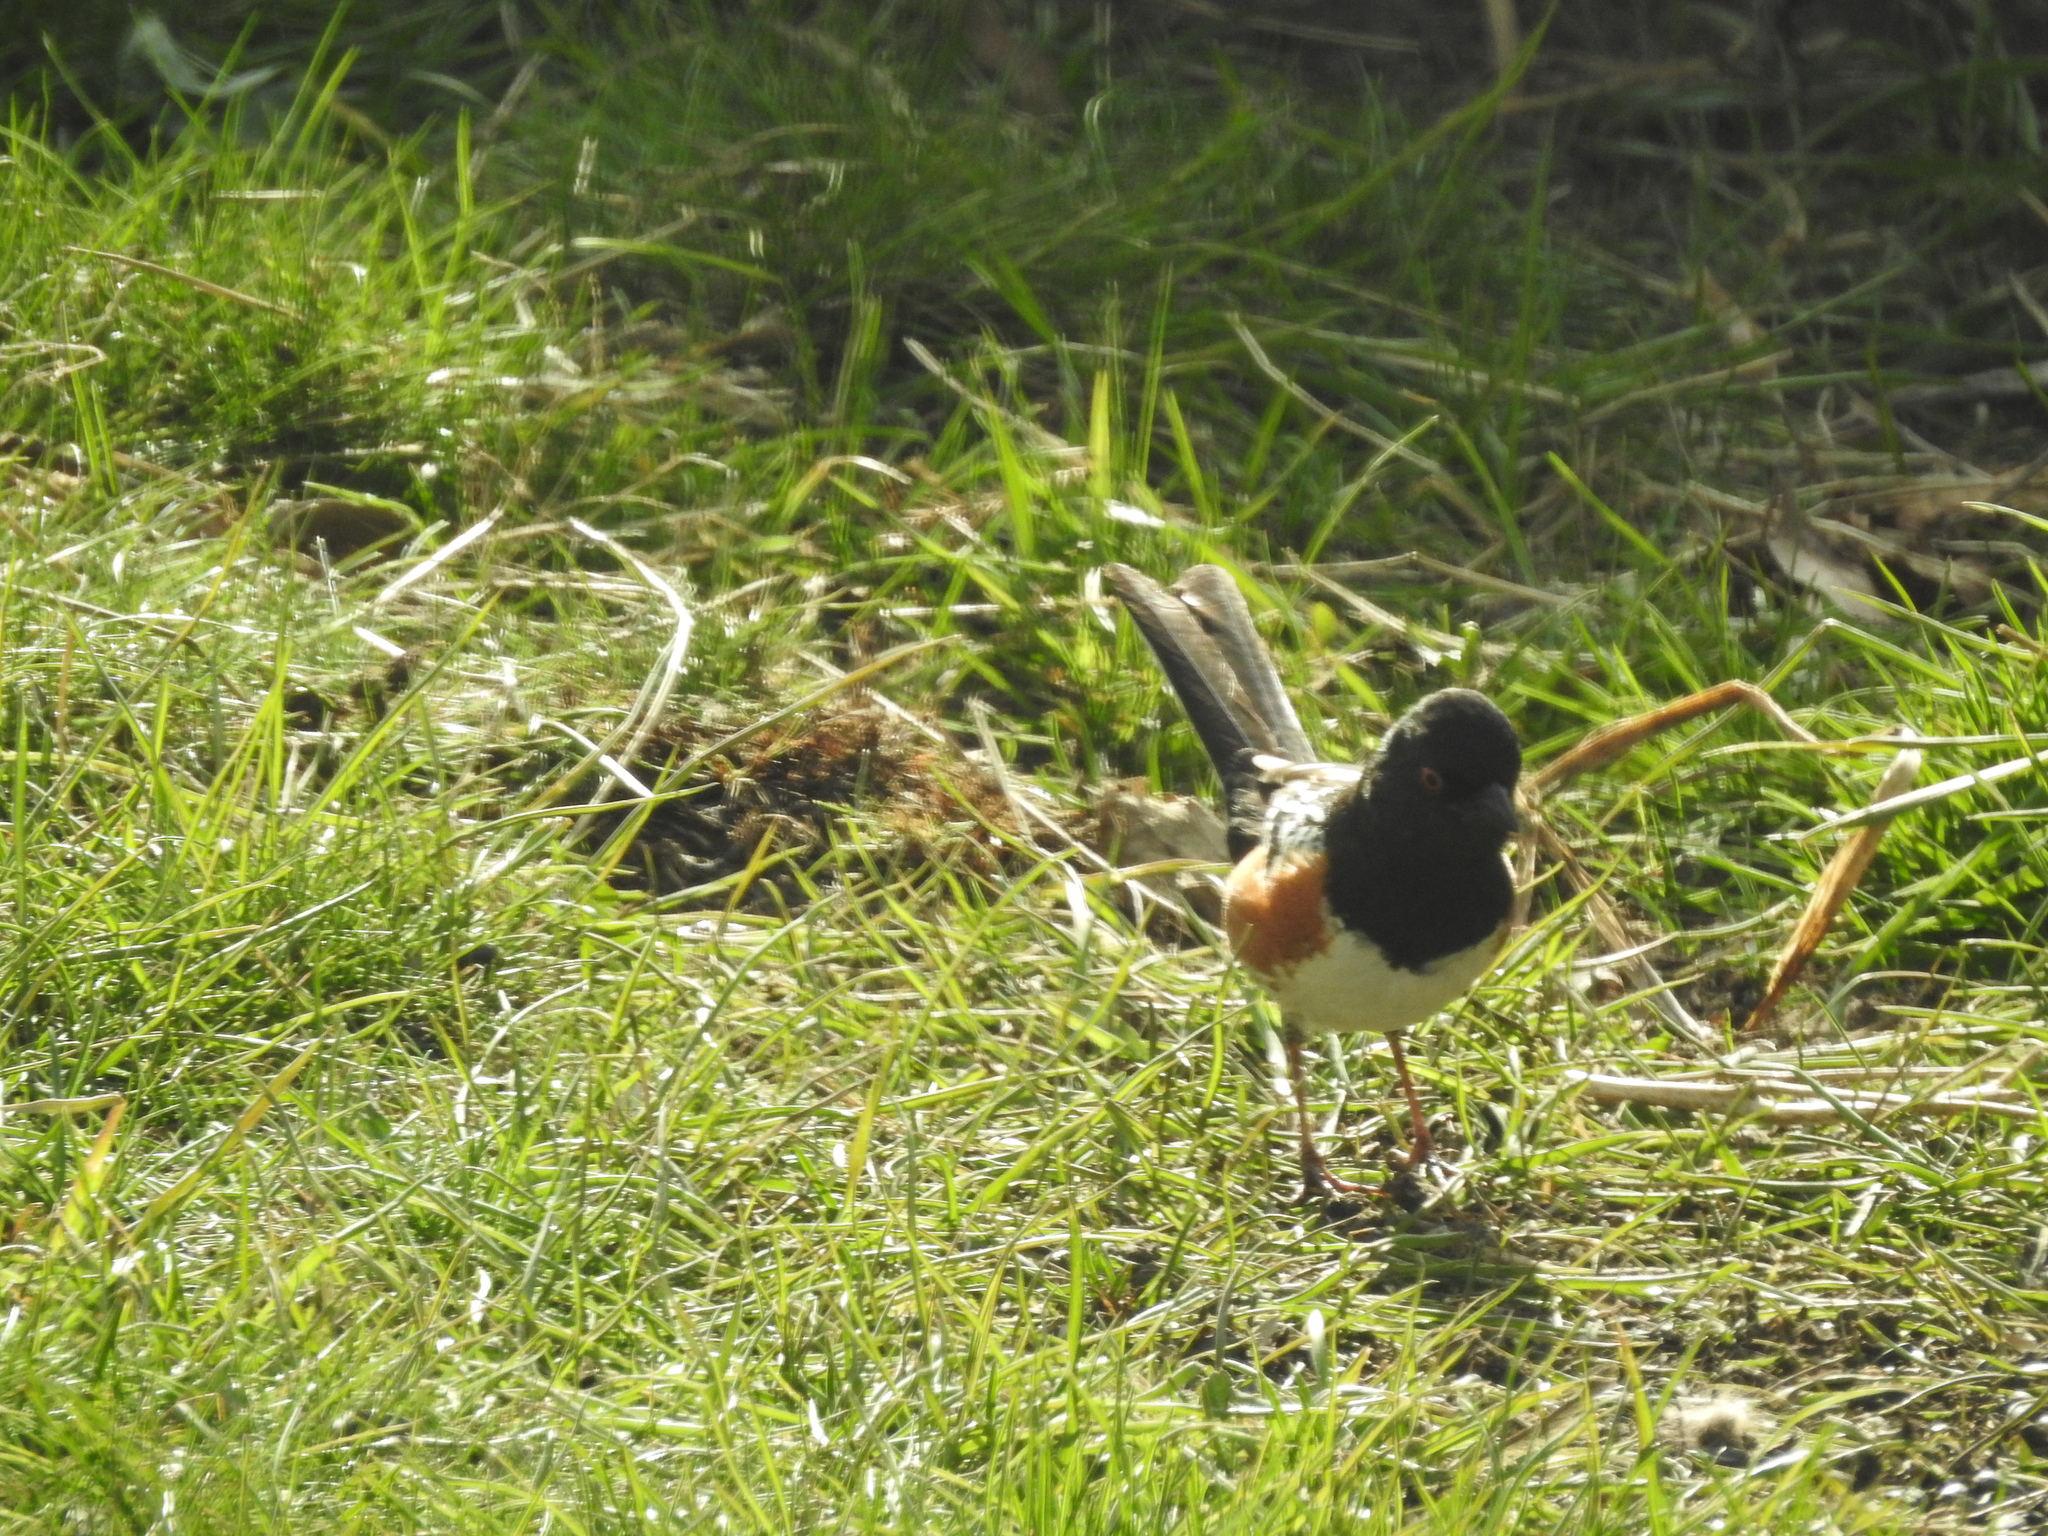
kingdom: Animalia
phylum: Chordata
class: Aves
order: Passeriformes
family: Passerellidae
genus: Pipilo
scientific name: Pipilo maculatus
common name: Spotted towhee
